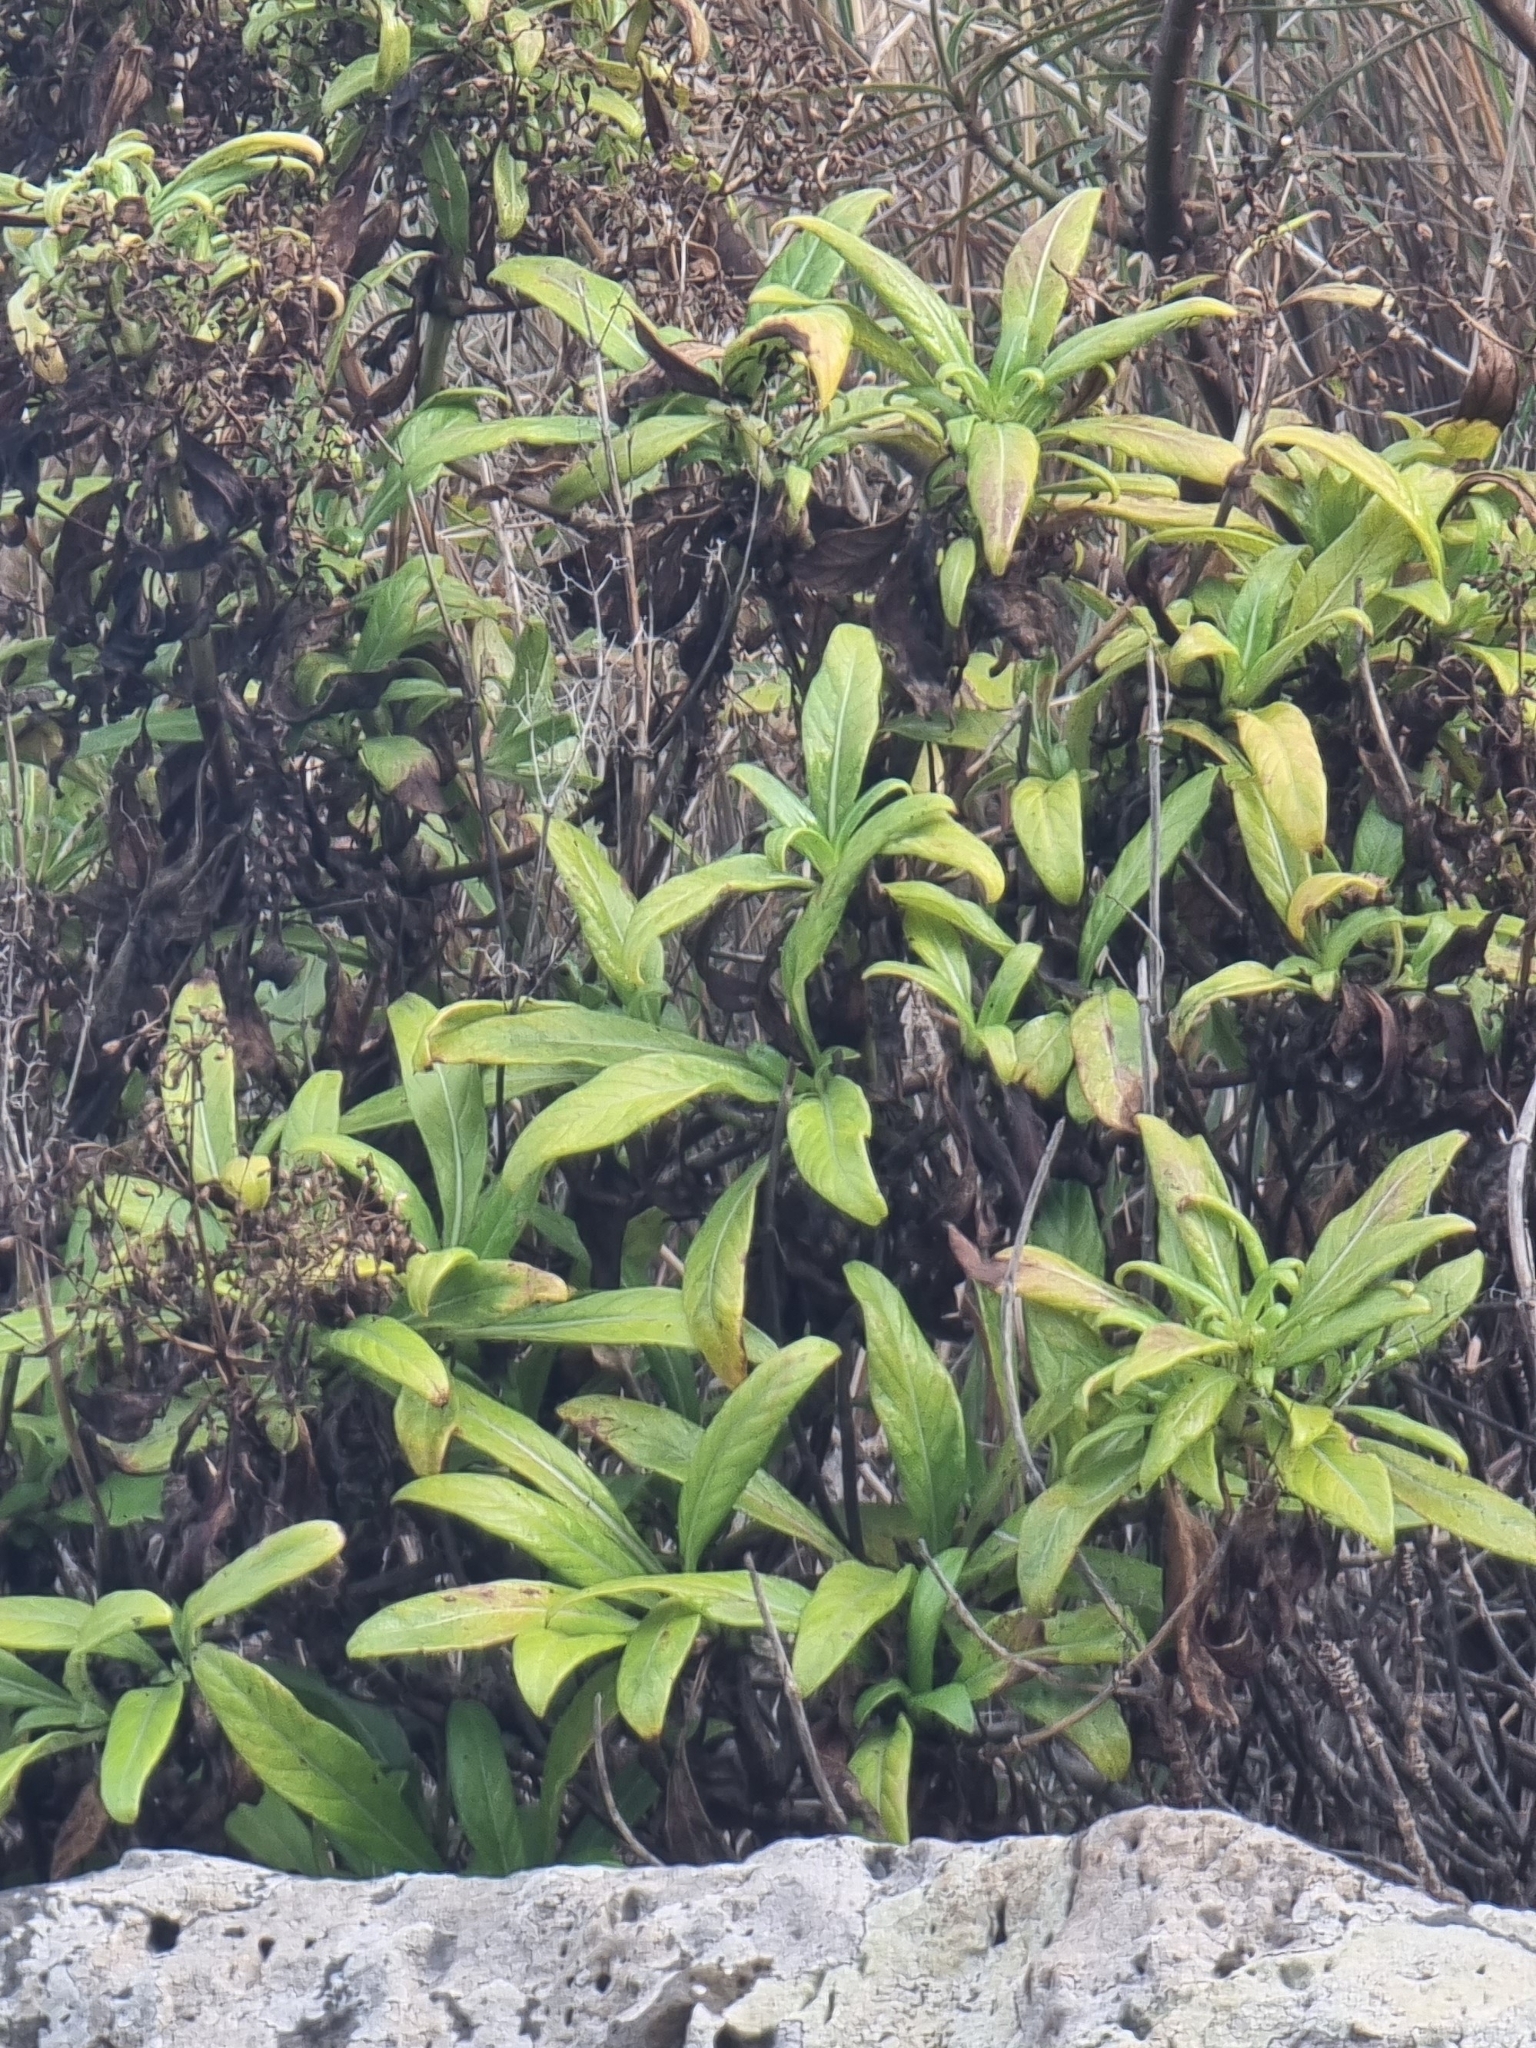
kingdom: Plantae
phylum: Tracheophyta
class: Magnoliopsida
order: Gentianales
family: Rubiaceae
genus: Phyllis
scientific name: Phyllis nobla
